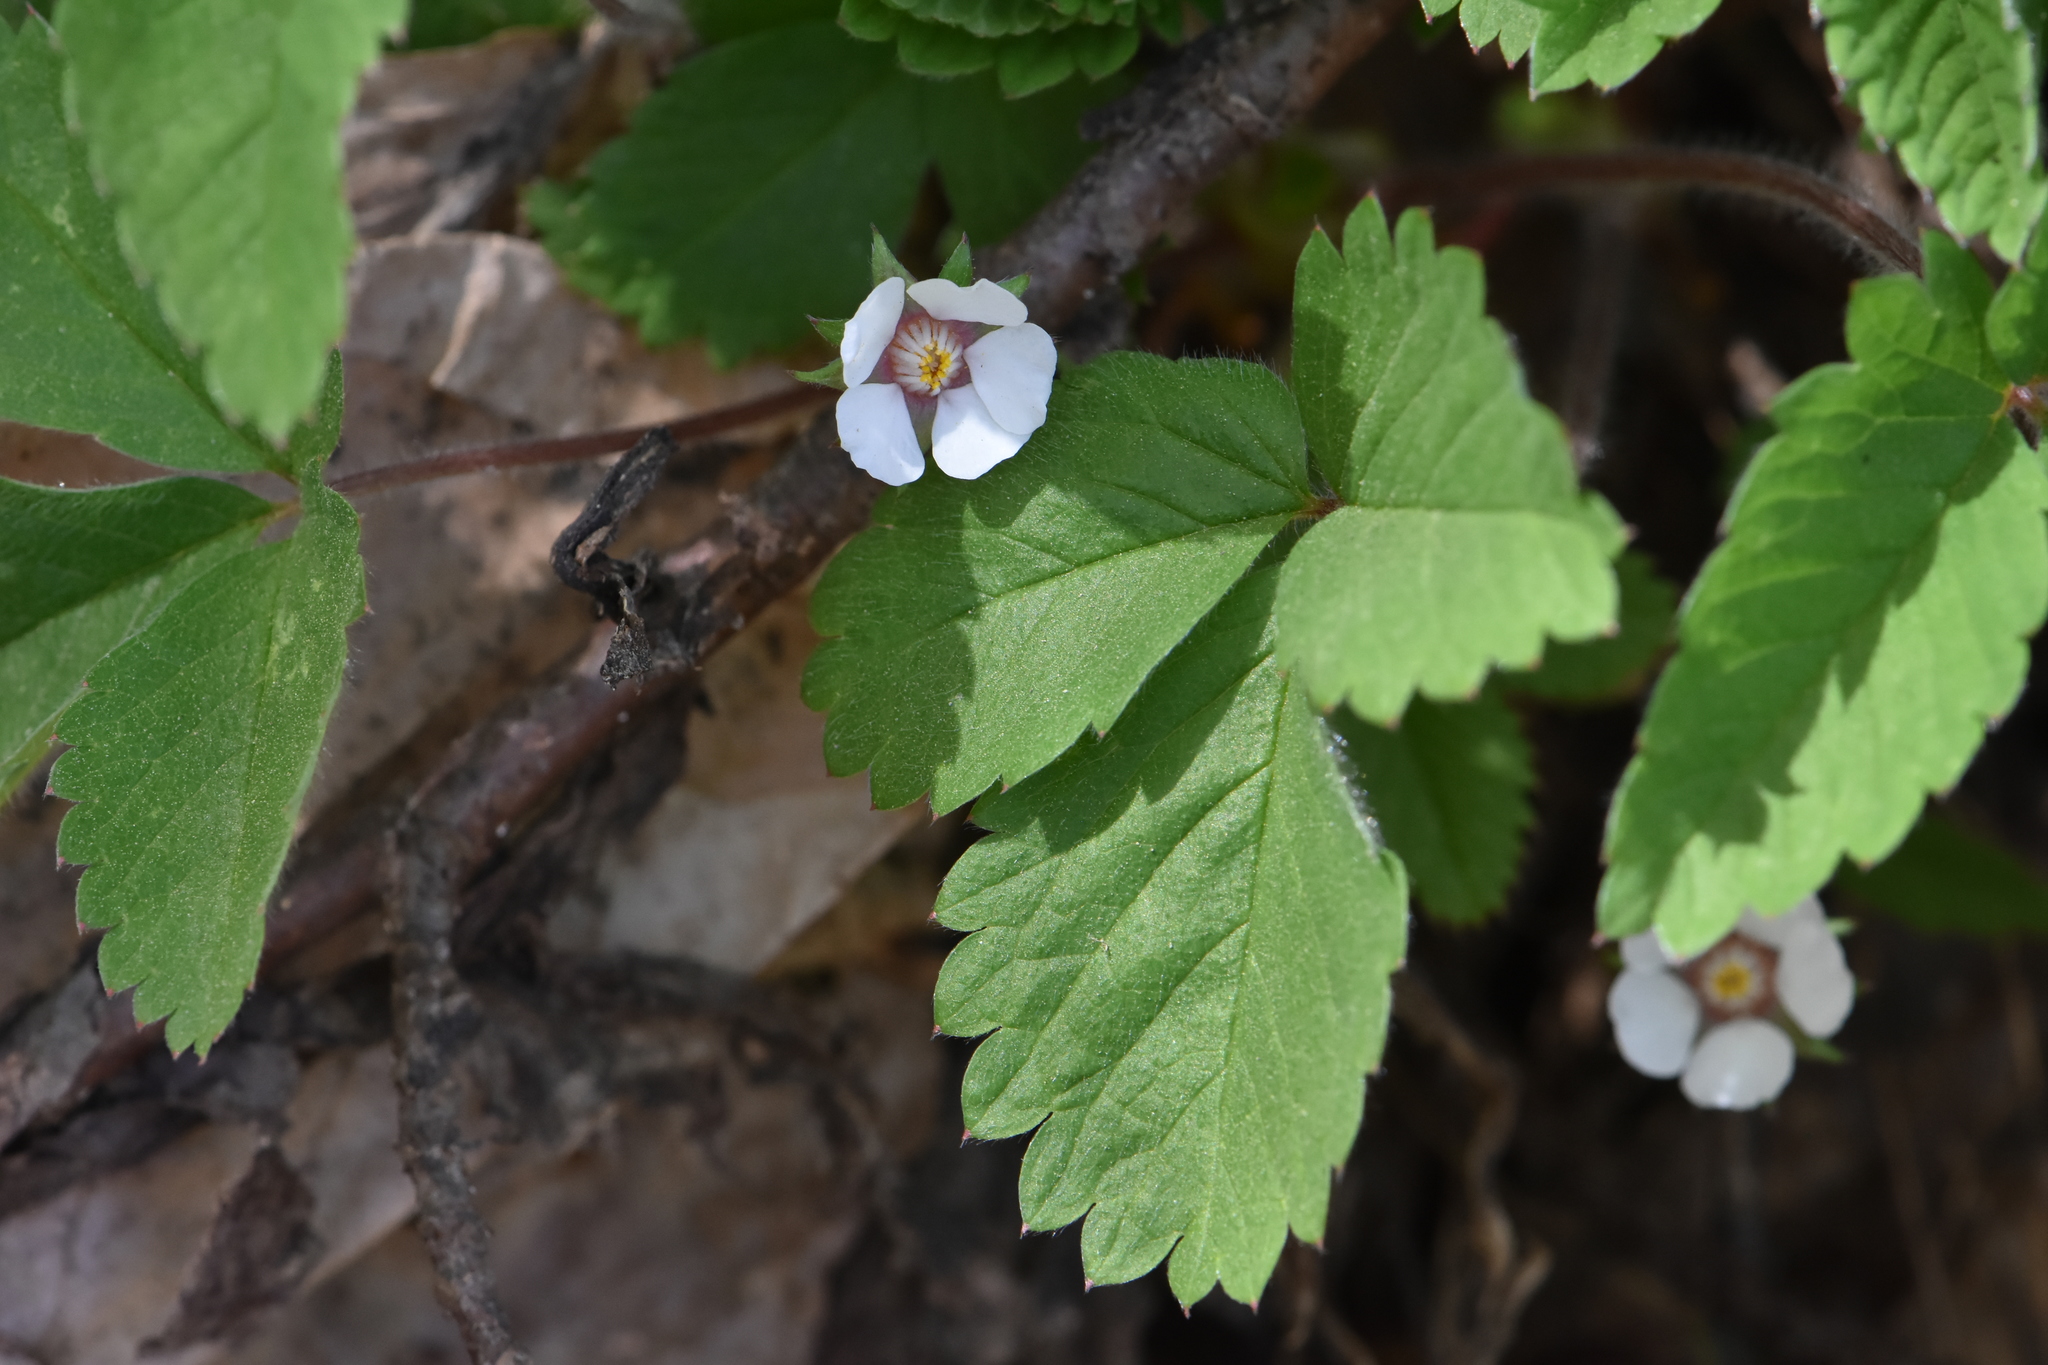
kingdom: Plantae
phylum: Tracheophyta
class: Magnoliopsida
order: Rosales
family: Rosaceae
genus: Potentilla
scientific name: Potentilla micrantha
